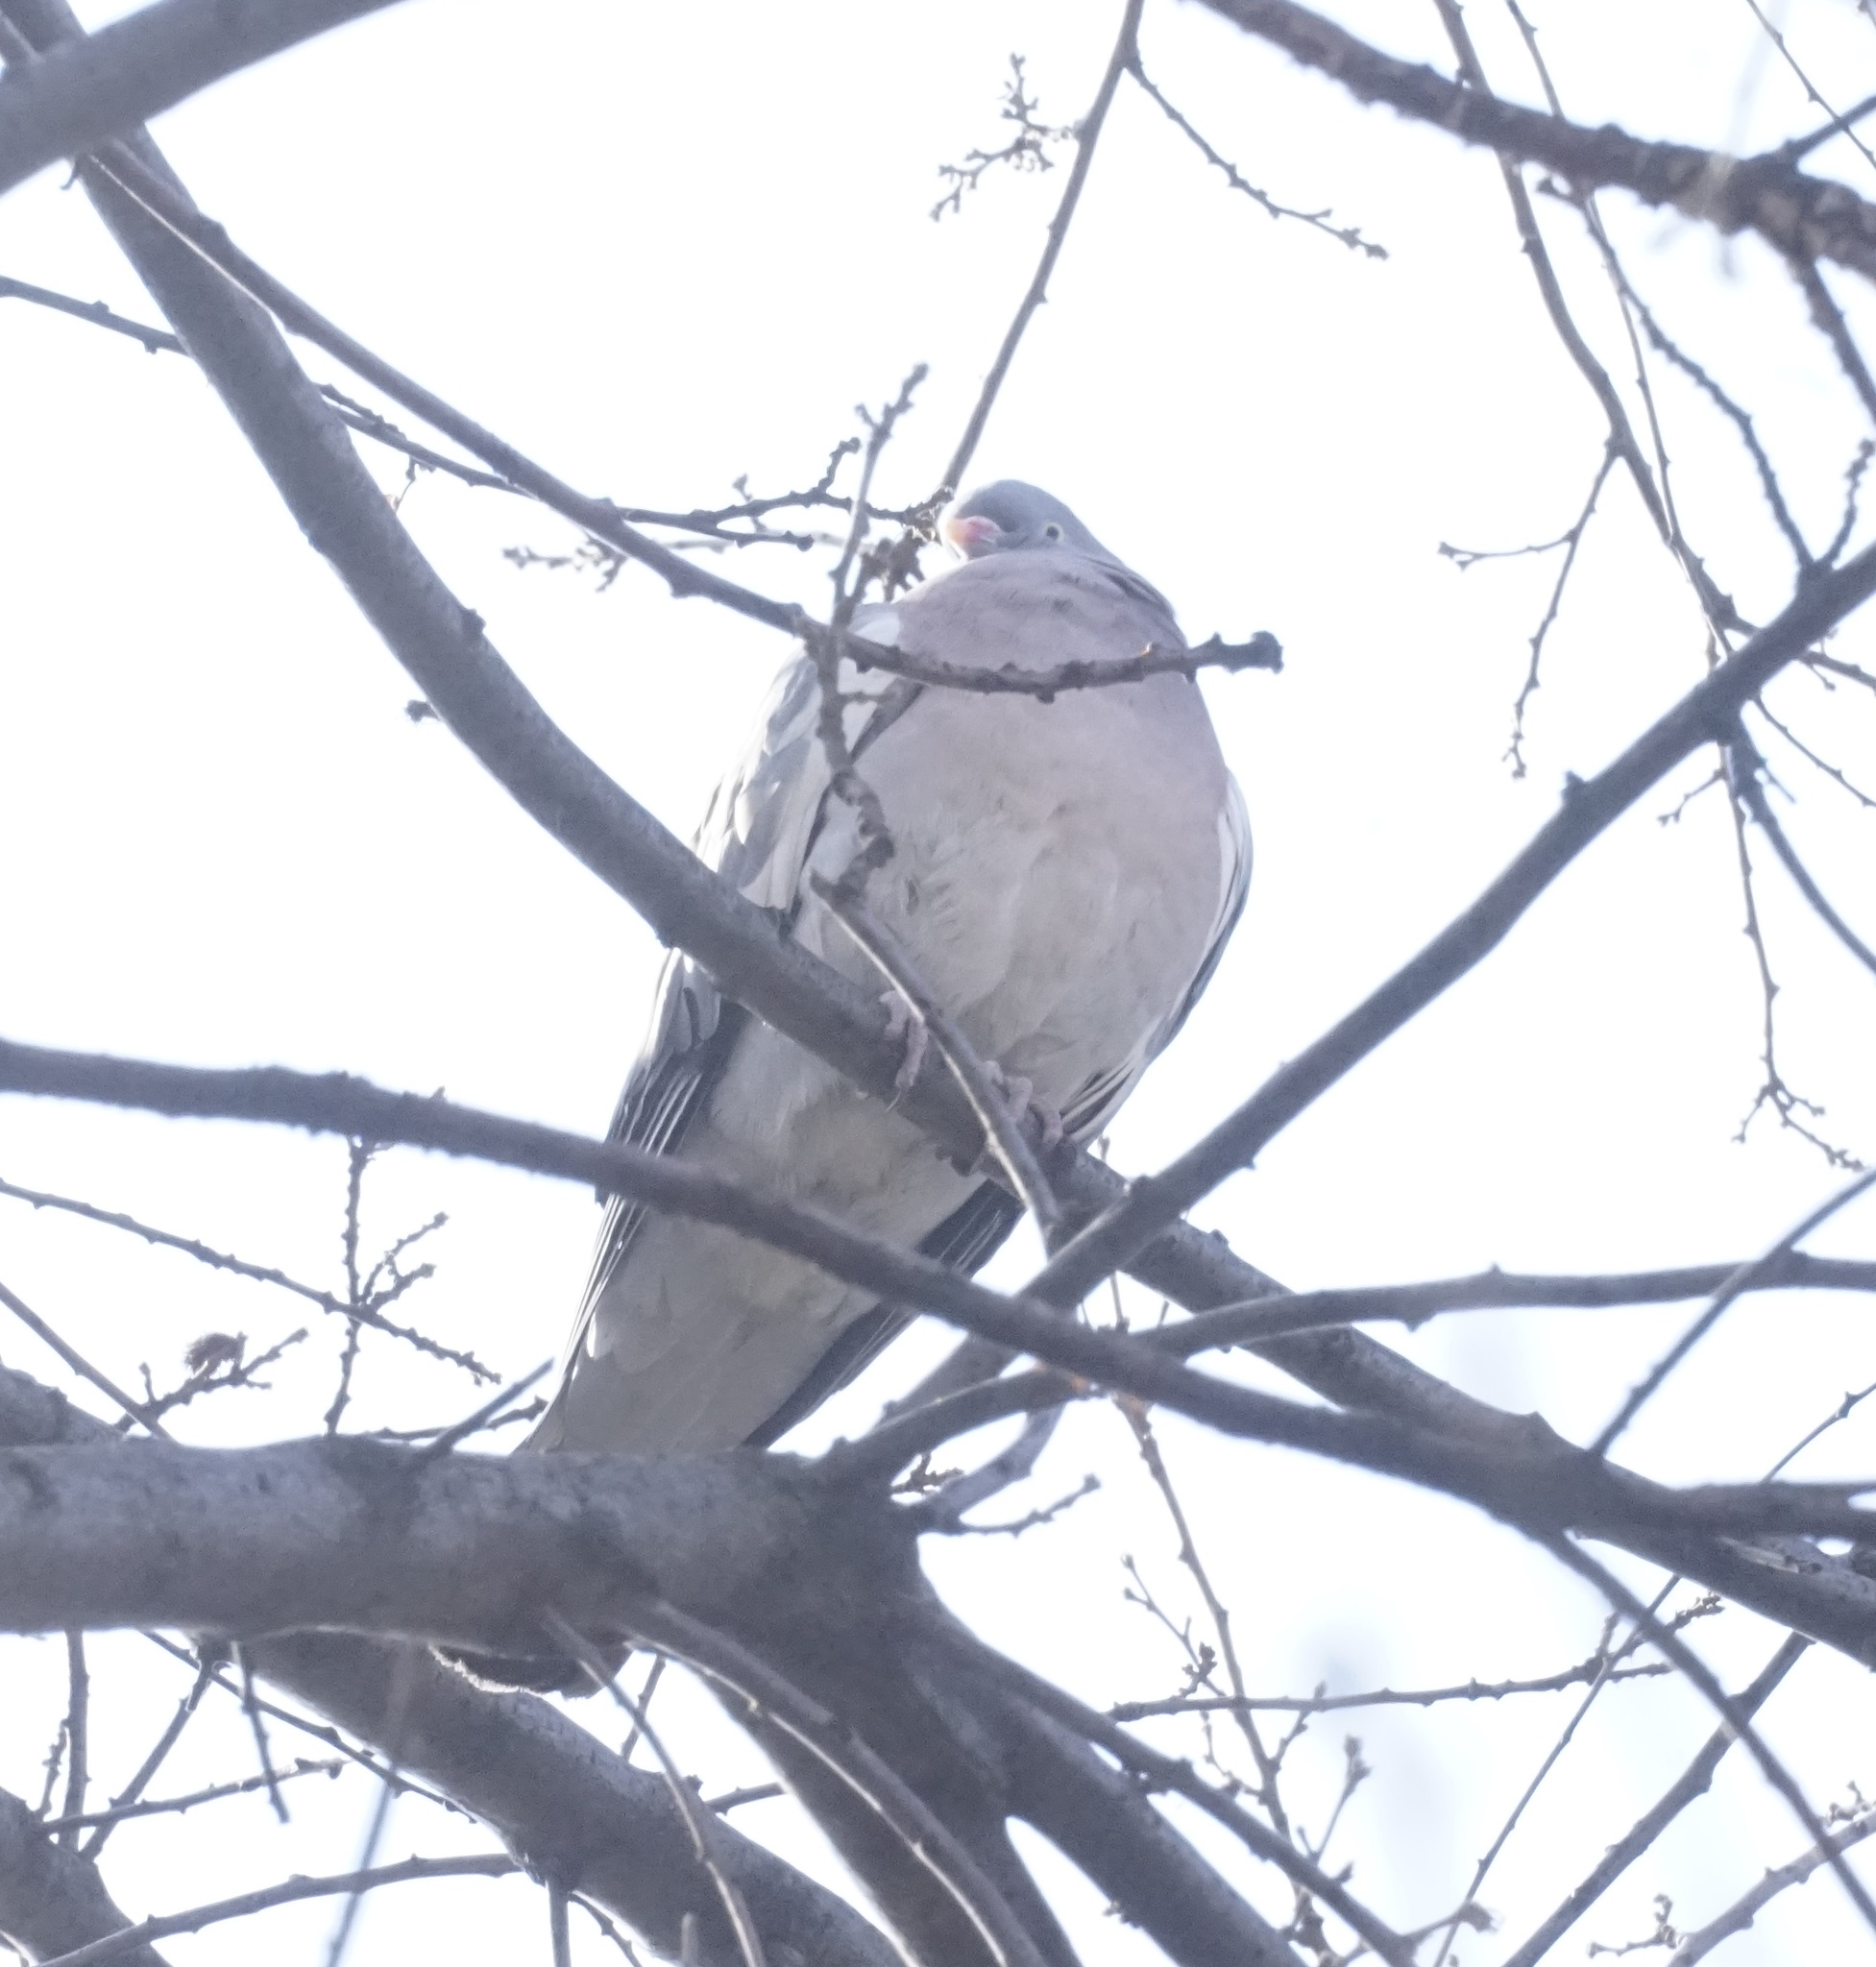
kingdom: Animalia
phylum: Chordata
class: Aves
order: Columbiformes
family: Columbidae
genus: Columba
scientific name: Columba palumbus
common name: Common wood pigeon
